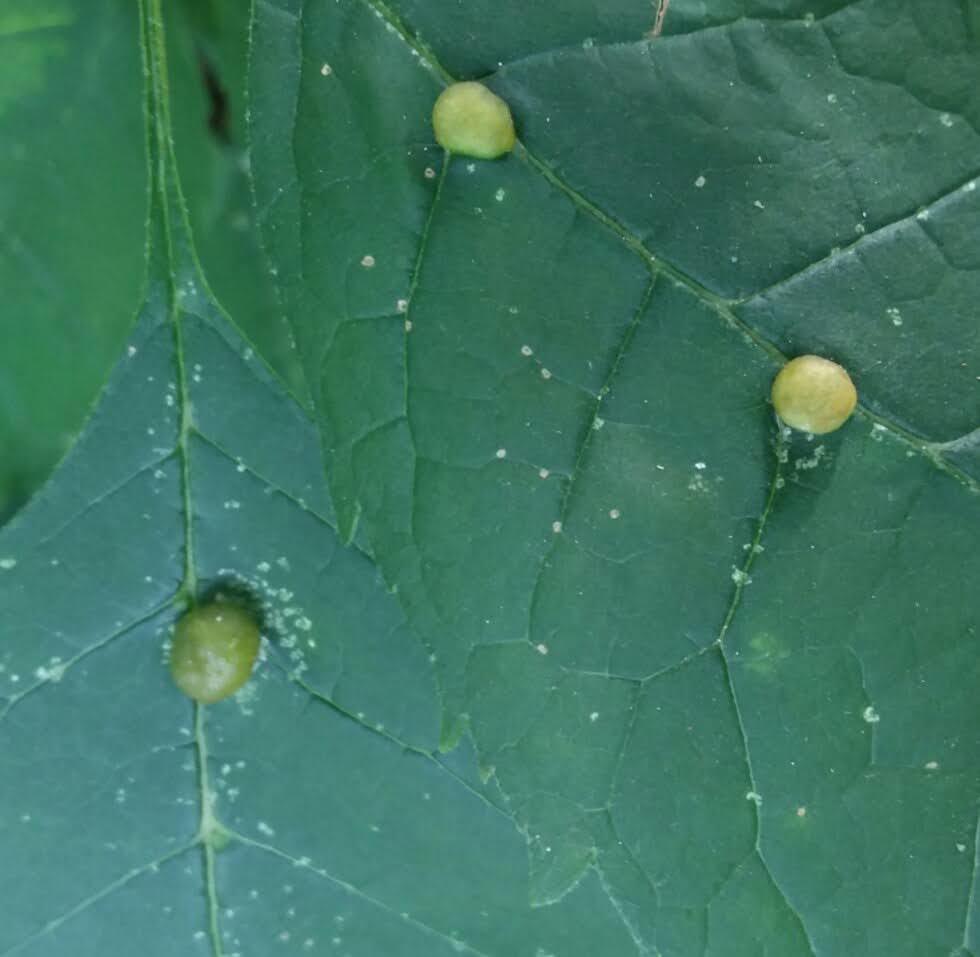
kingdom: Animalia
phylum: Arthropoda
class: Insecta
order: Diptera
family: Cecidomyiidae
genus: Dasineura
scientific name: Dasineura pellex
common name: Ash bullet gall midge
